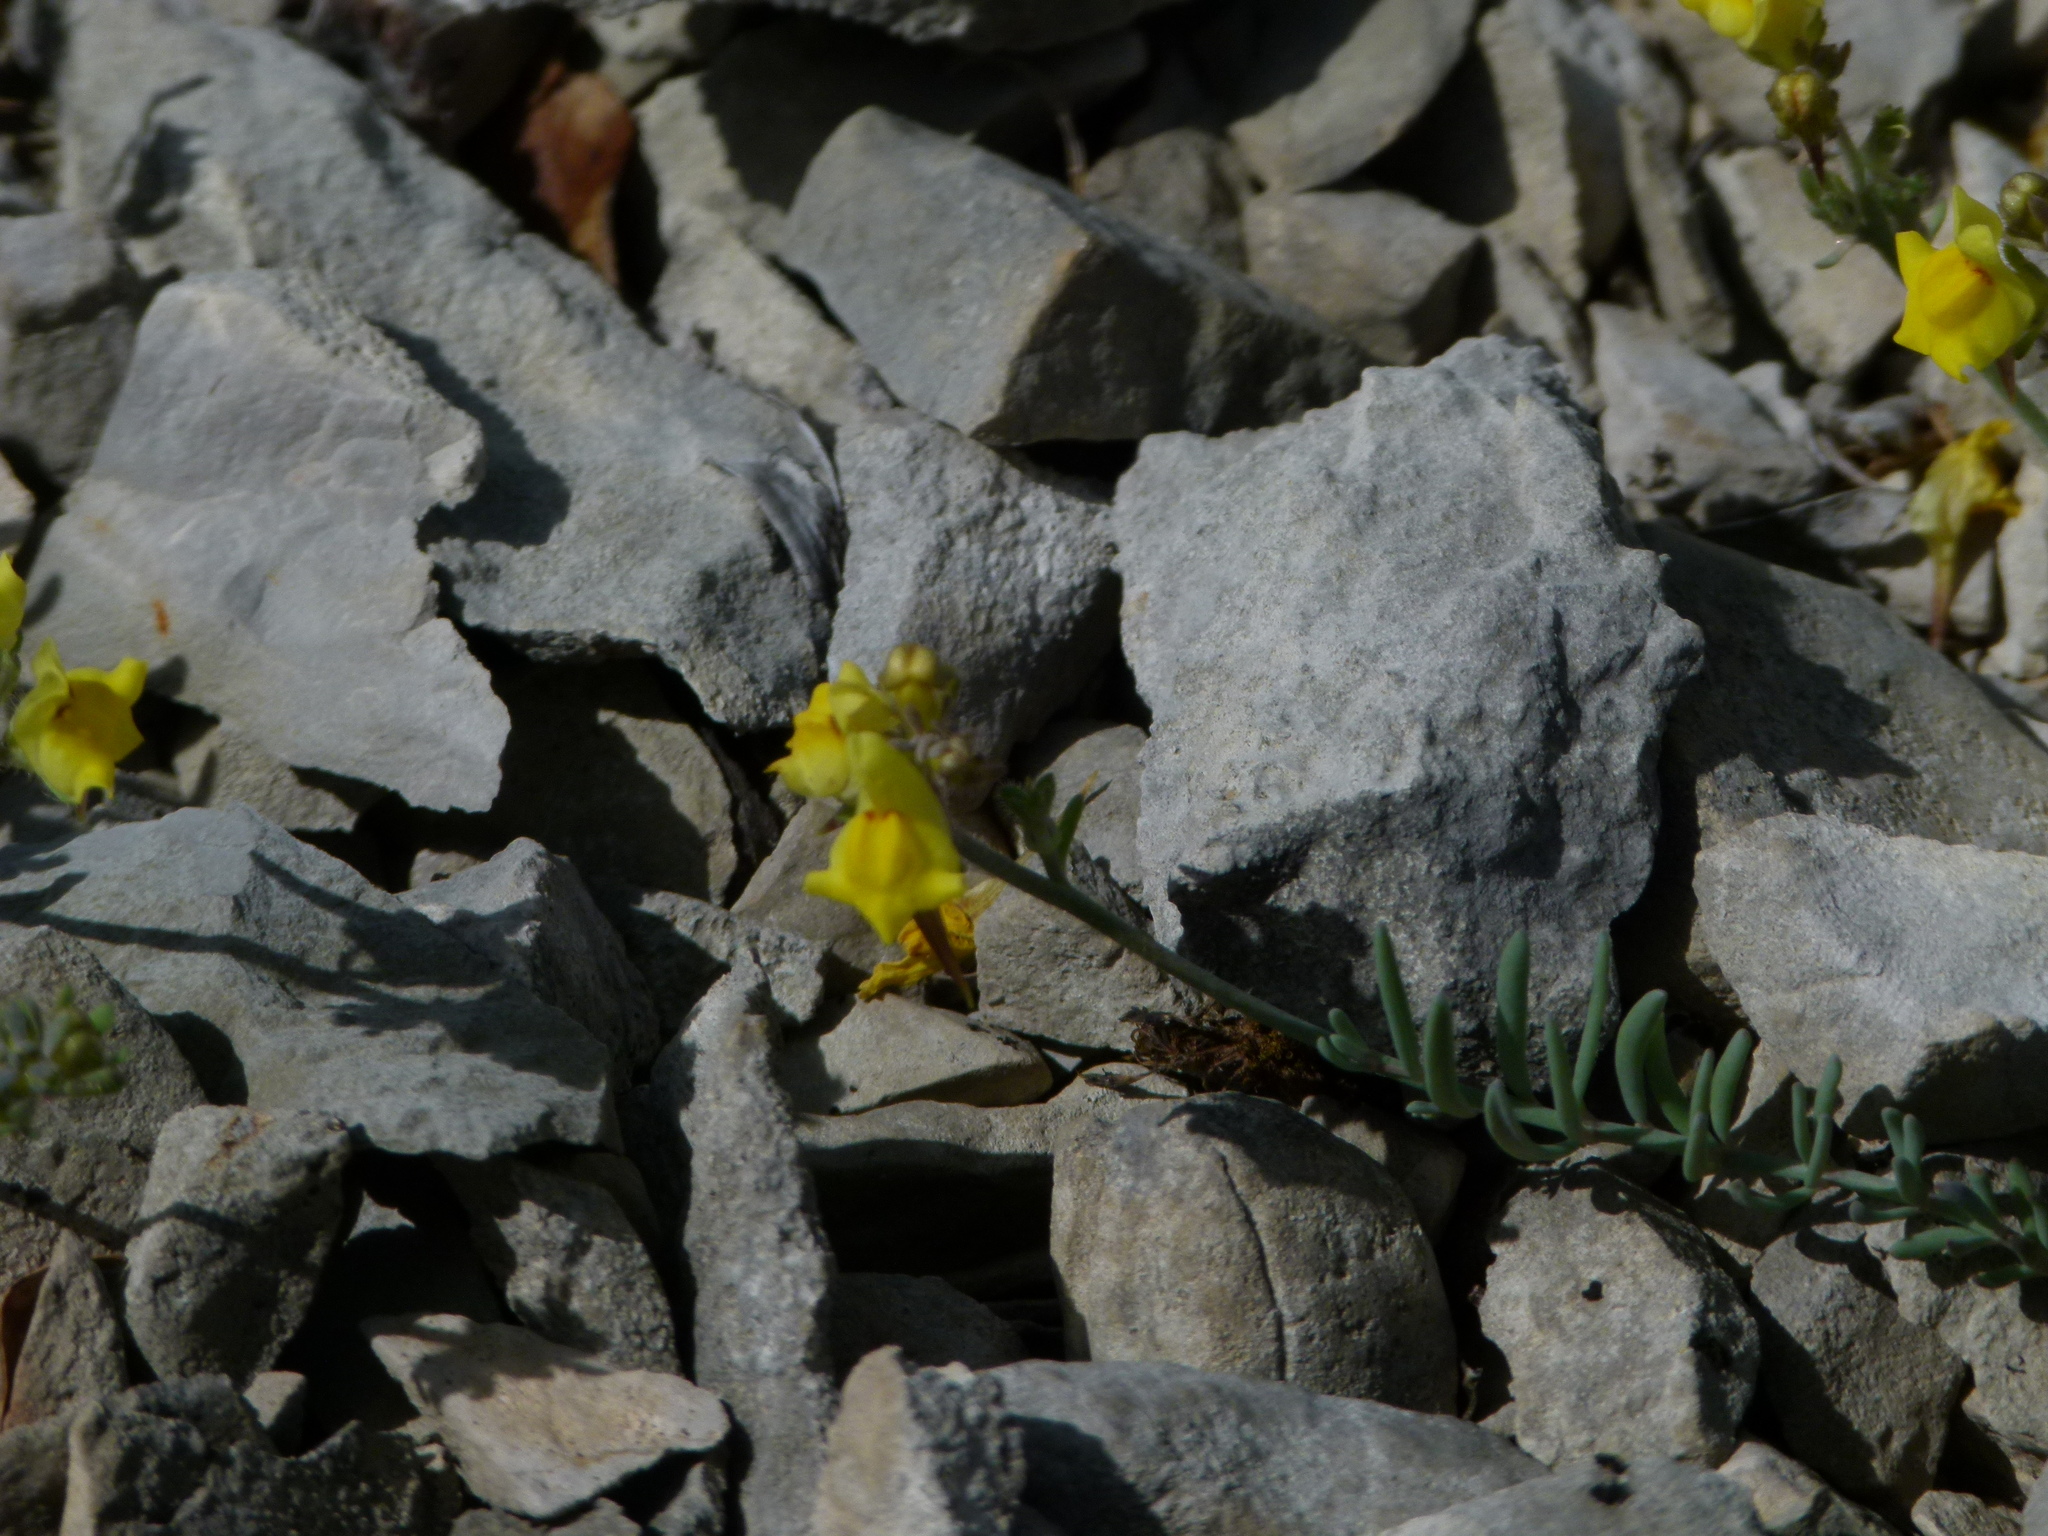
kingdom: Plantae
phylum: Tracheophyta
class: Magnoliopsida
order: Lamiales
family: Plantaginaceae
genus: Linaria
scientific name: Linaria supina
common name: Prostrate toadflax
